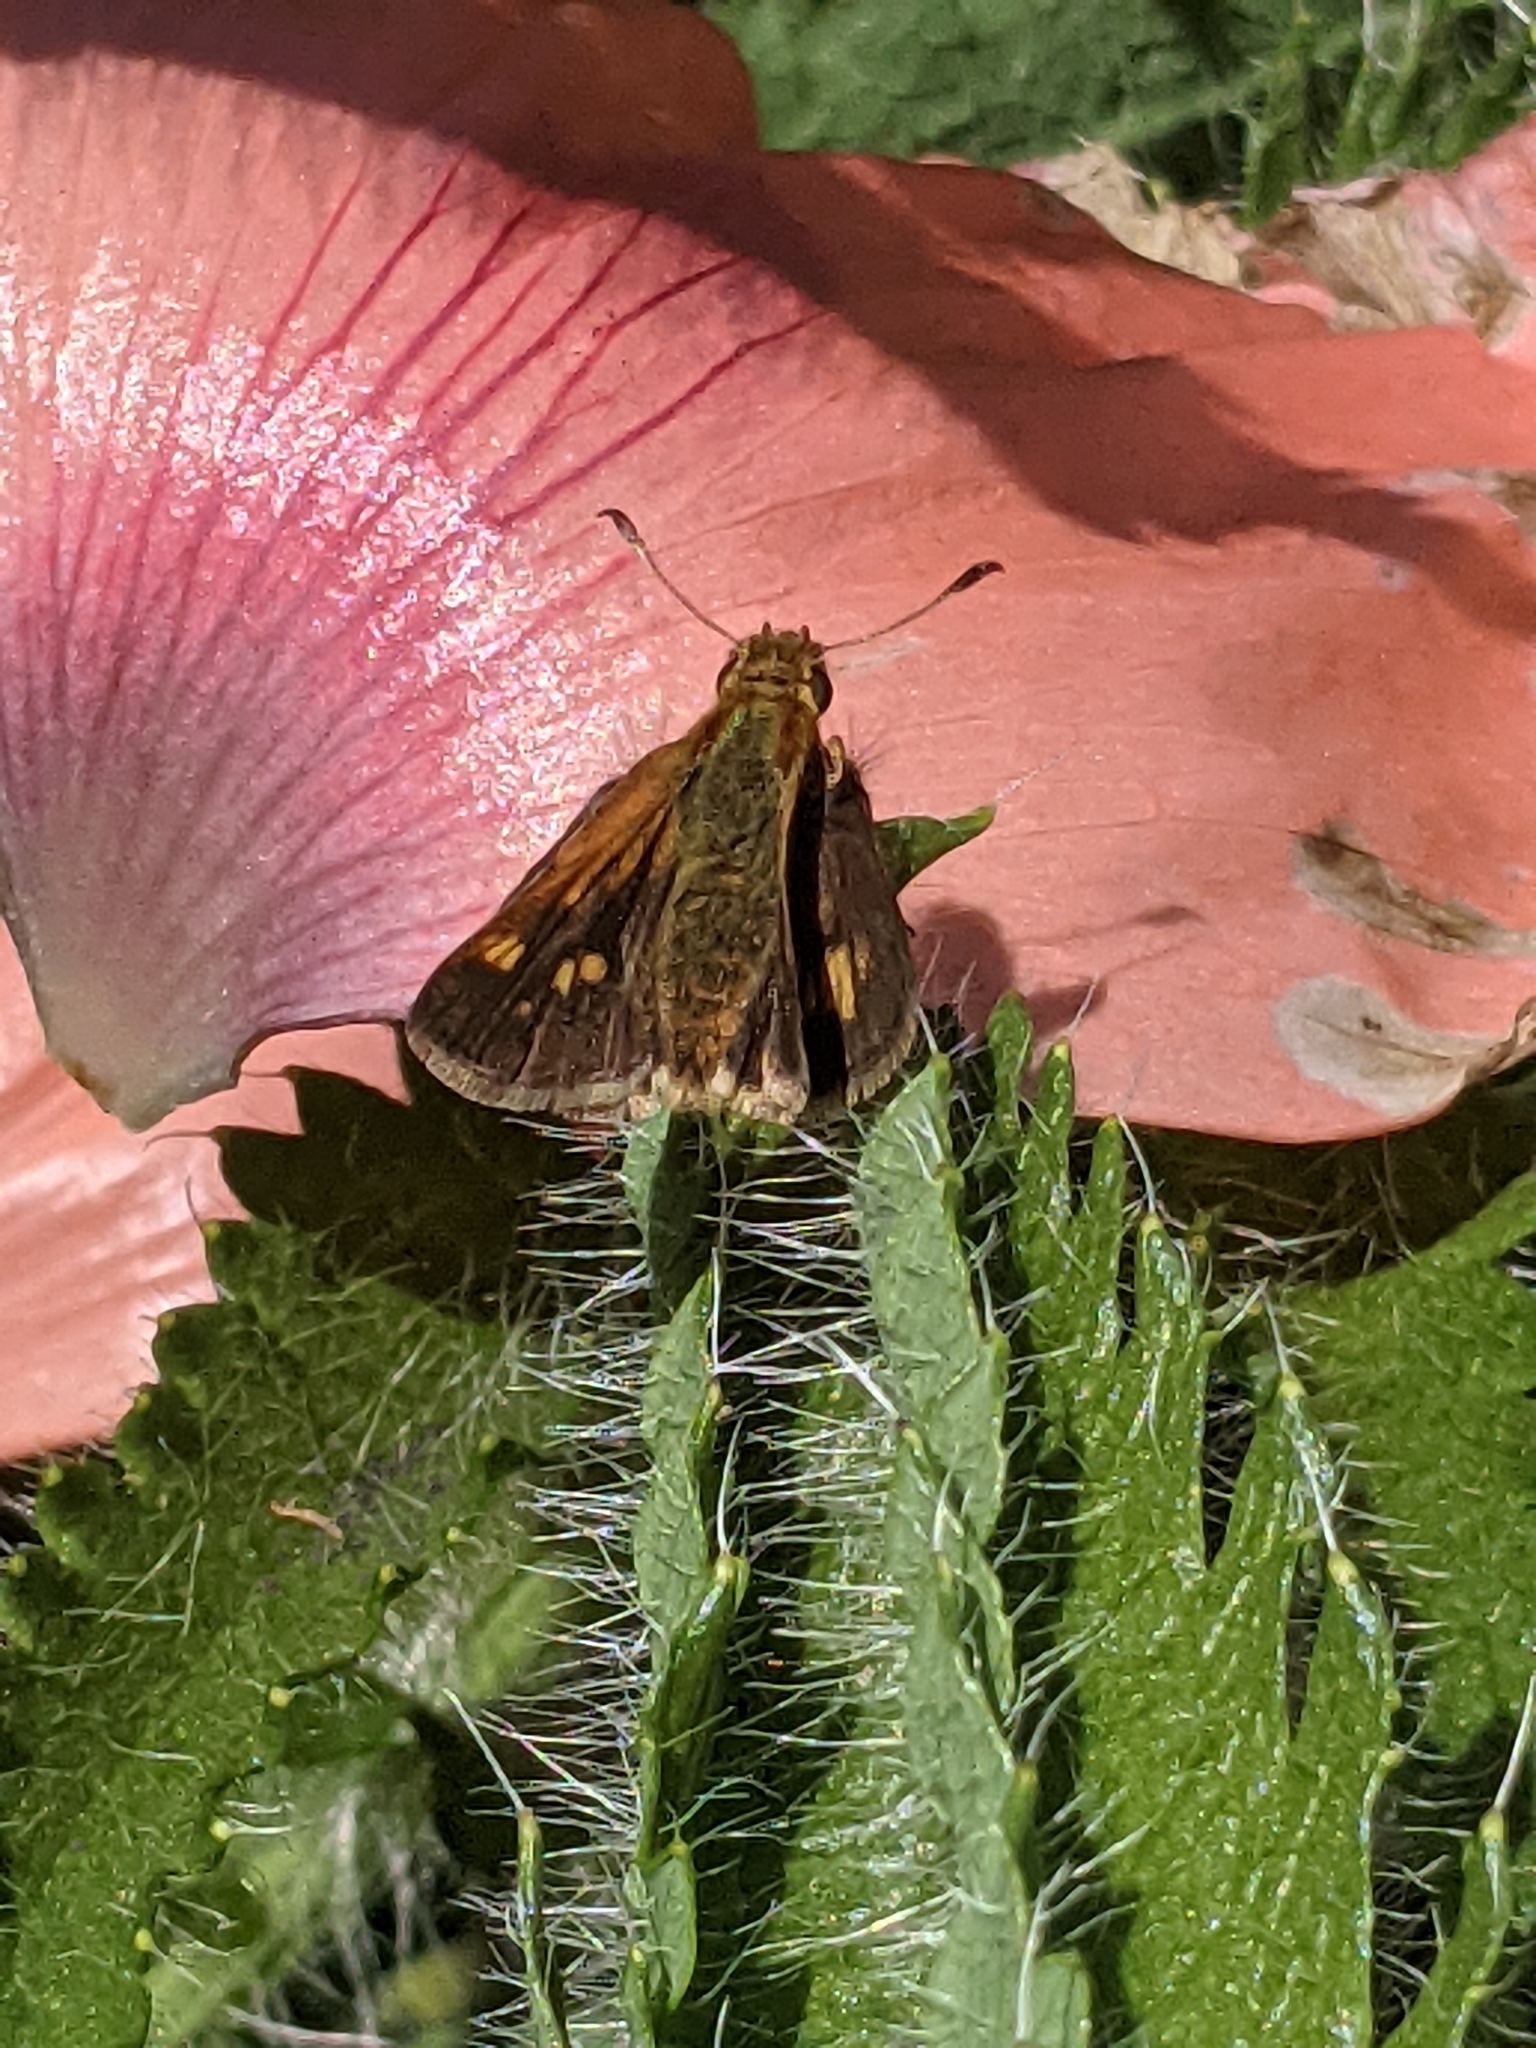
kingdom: Animalia
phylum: Arthropoda
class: Insecta
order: Lepidoptera
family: Hesperiidae
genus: Polites
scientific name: Polites coras
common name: Peck's skipper
